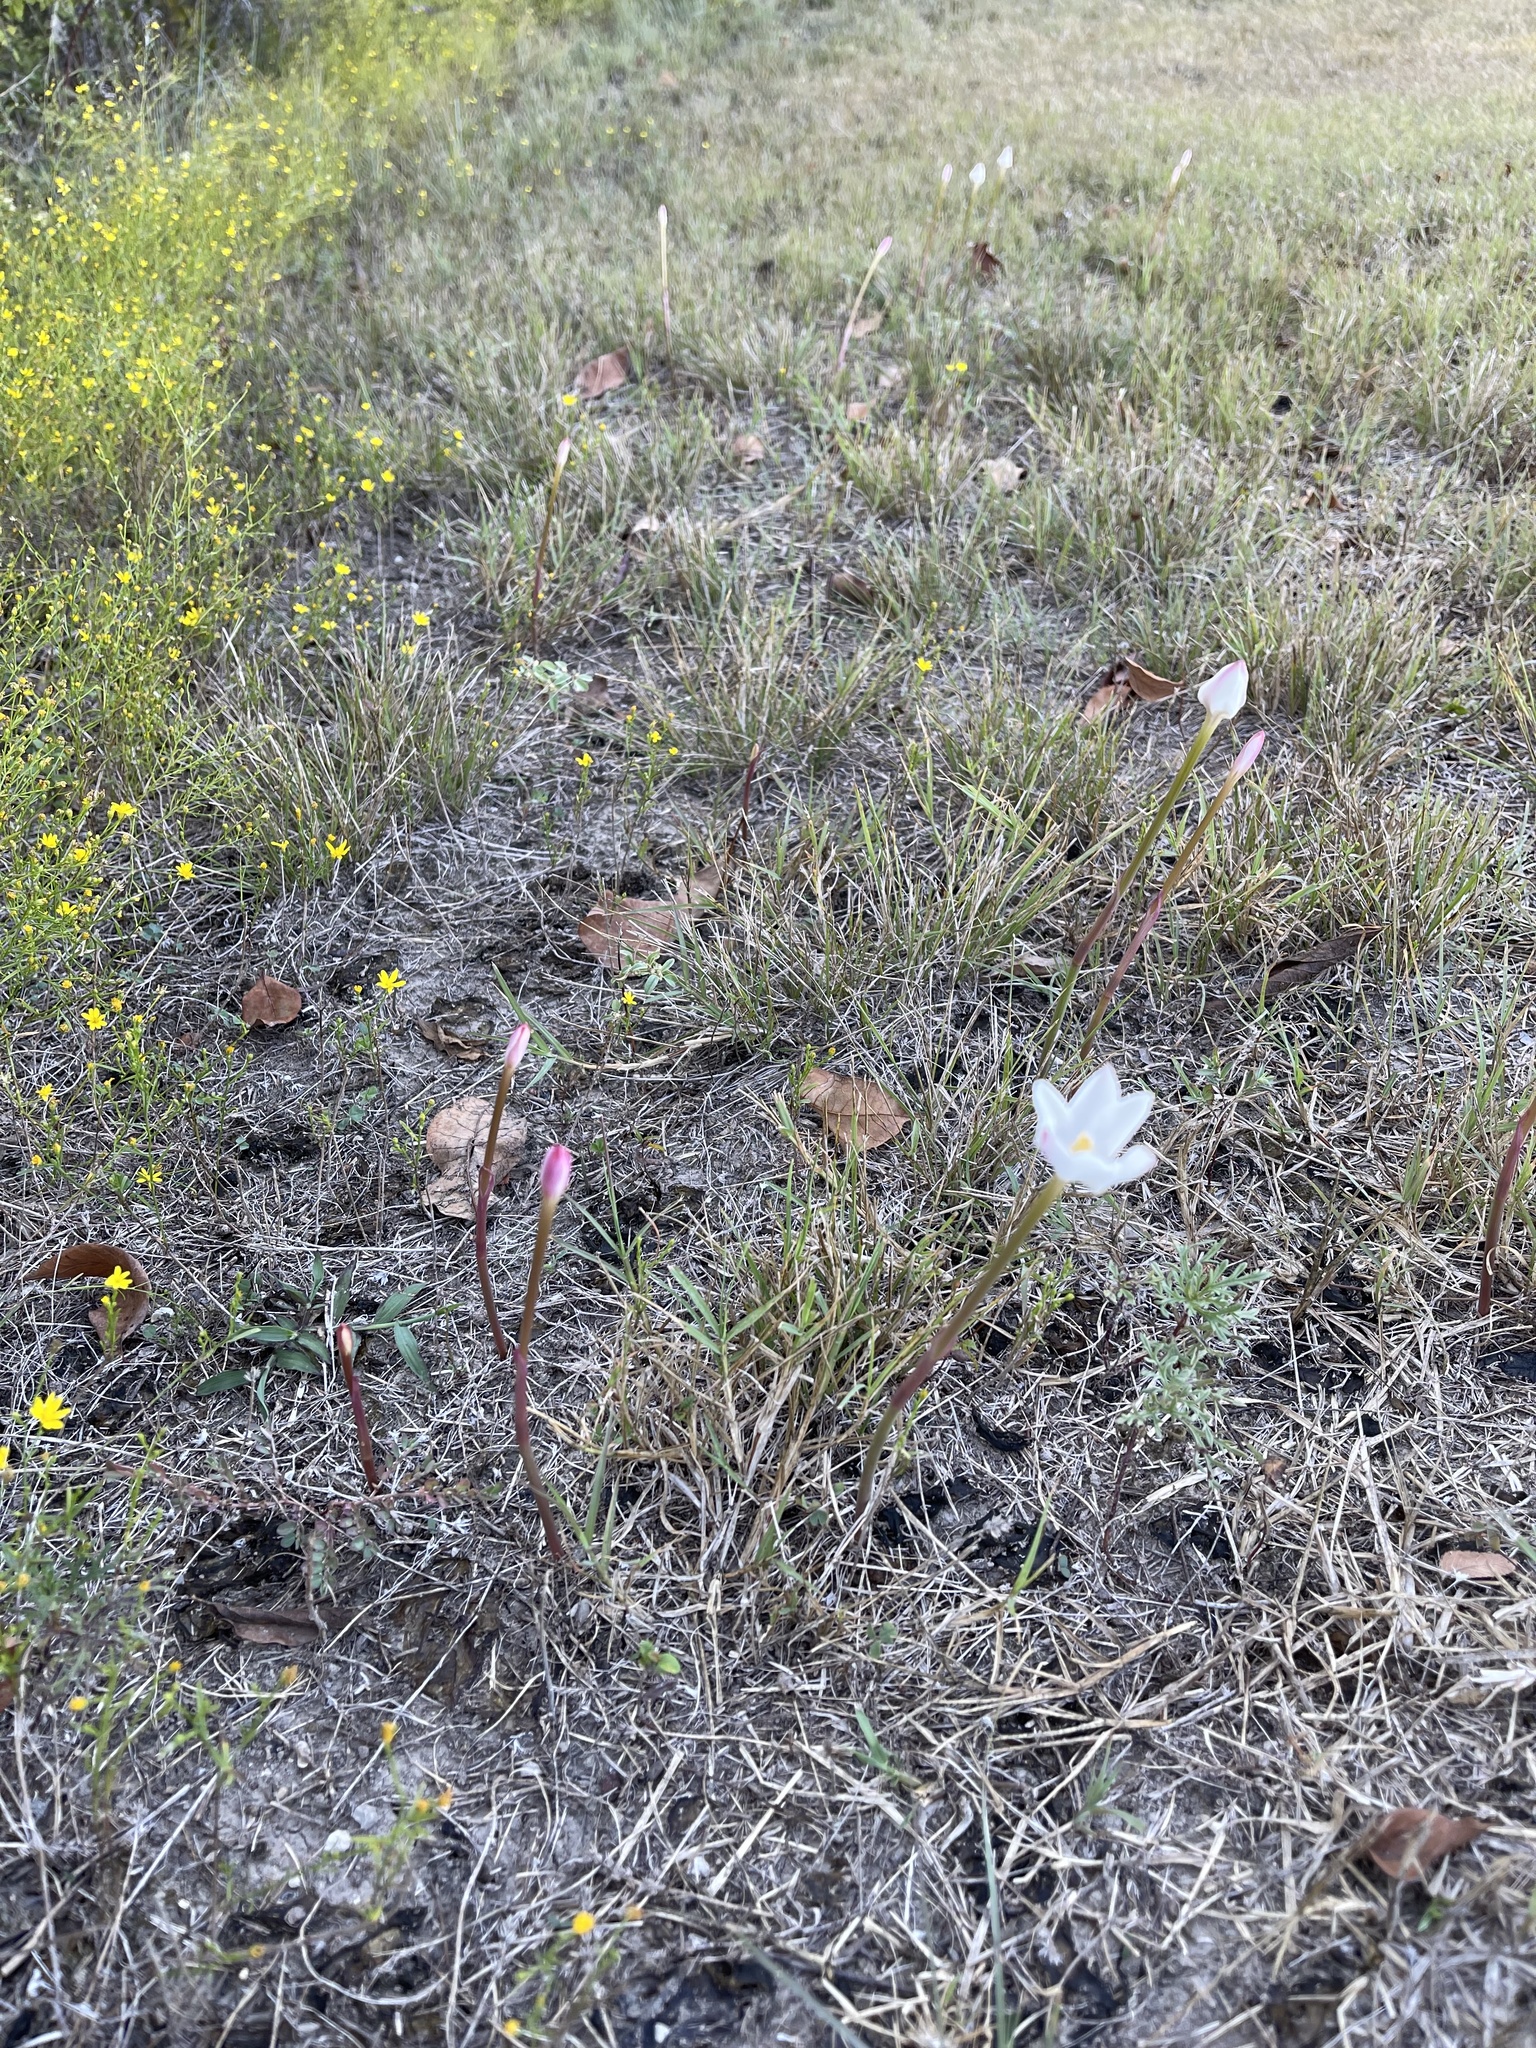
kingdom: Plantae
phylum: Tracheophyta
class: Liliopsida
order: Asparagales
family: Amaryllidaceae
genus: Zephyranthes
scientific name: Zephyranthes chlorosolen
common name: Evening rain-lily
